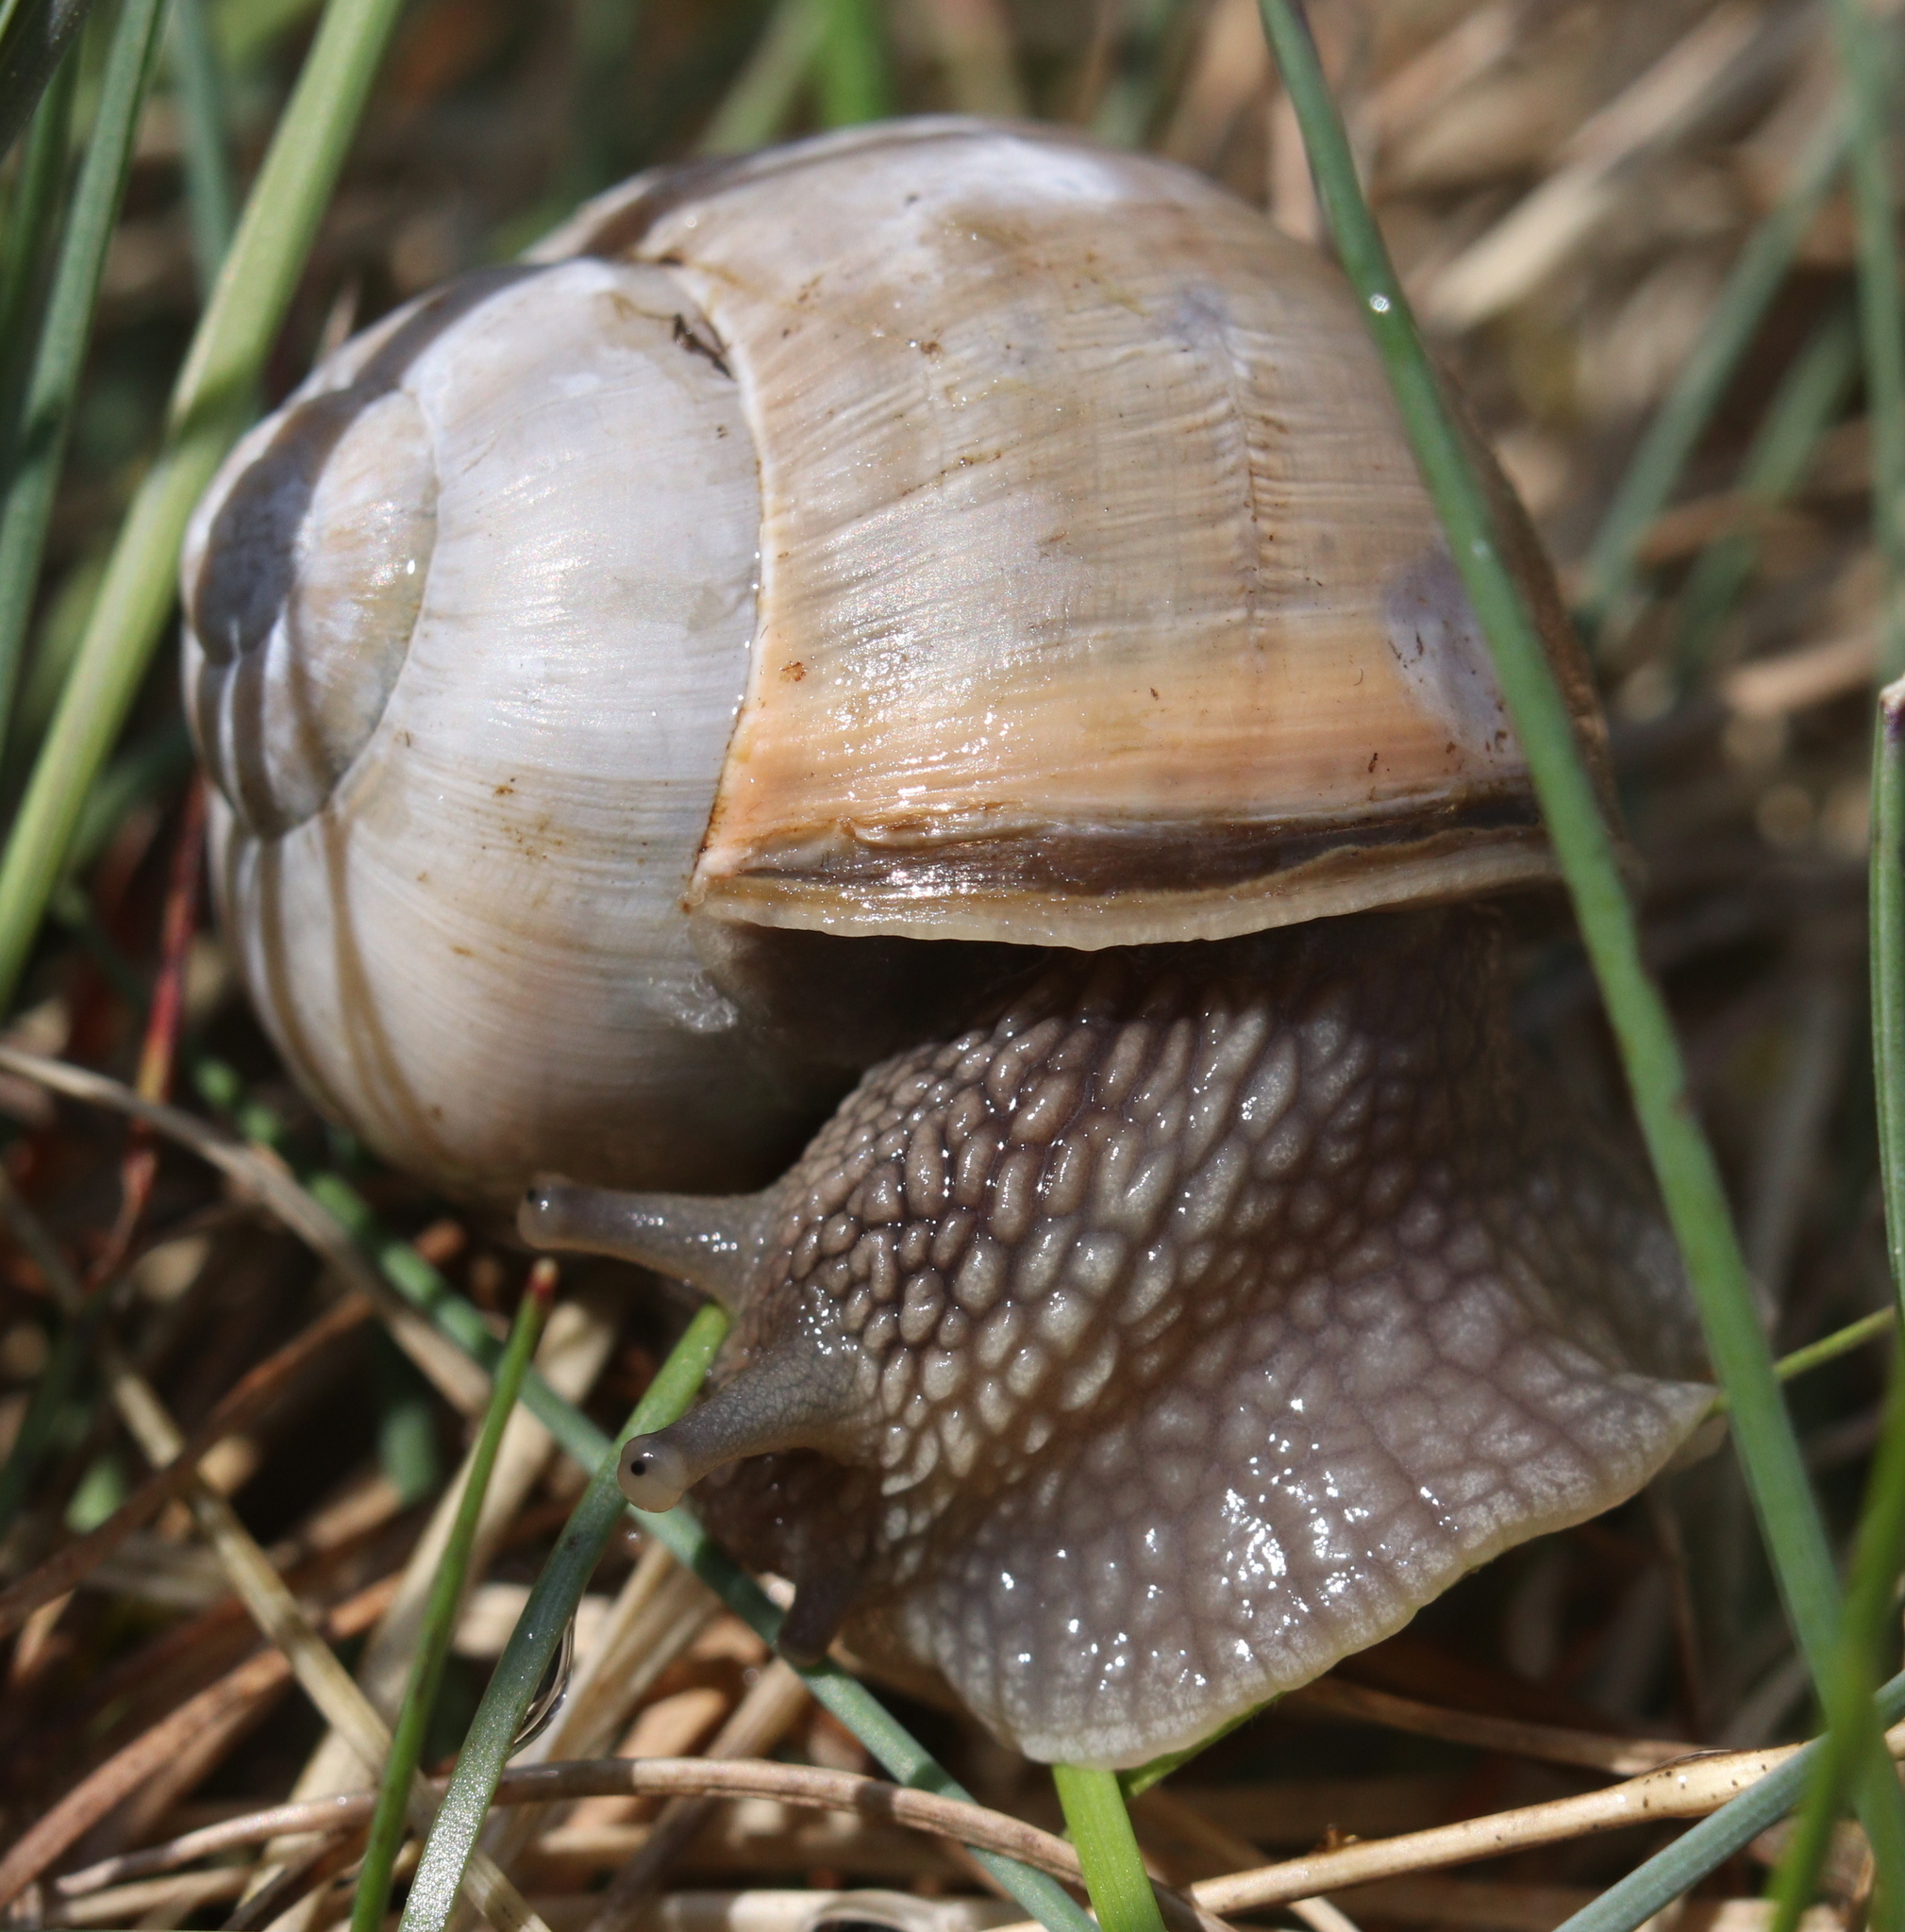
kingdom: Animalia
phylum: Mollusca
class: Gastropoda
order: Stylommatophora
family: Helicidae
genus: Helix
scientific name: Helix lutescens
